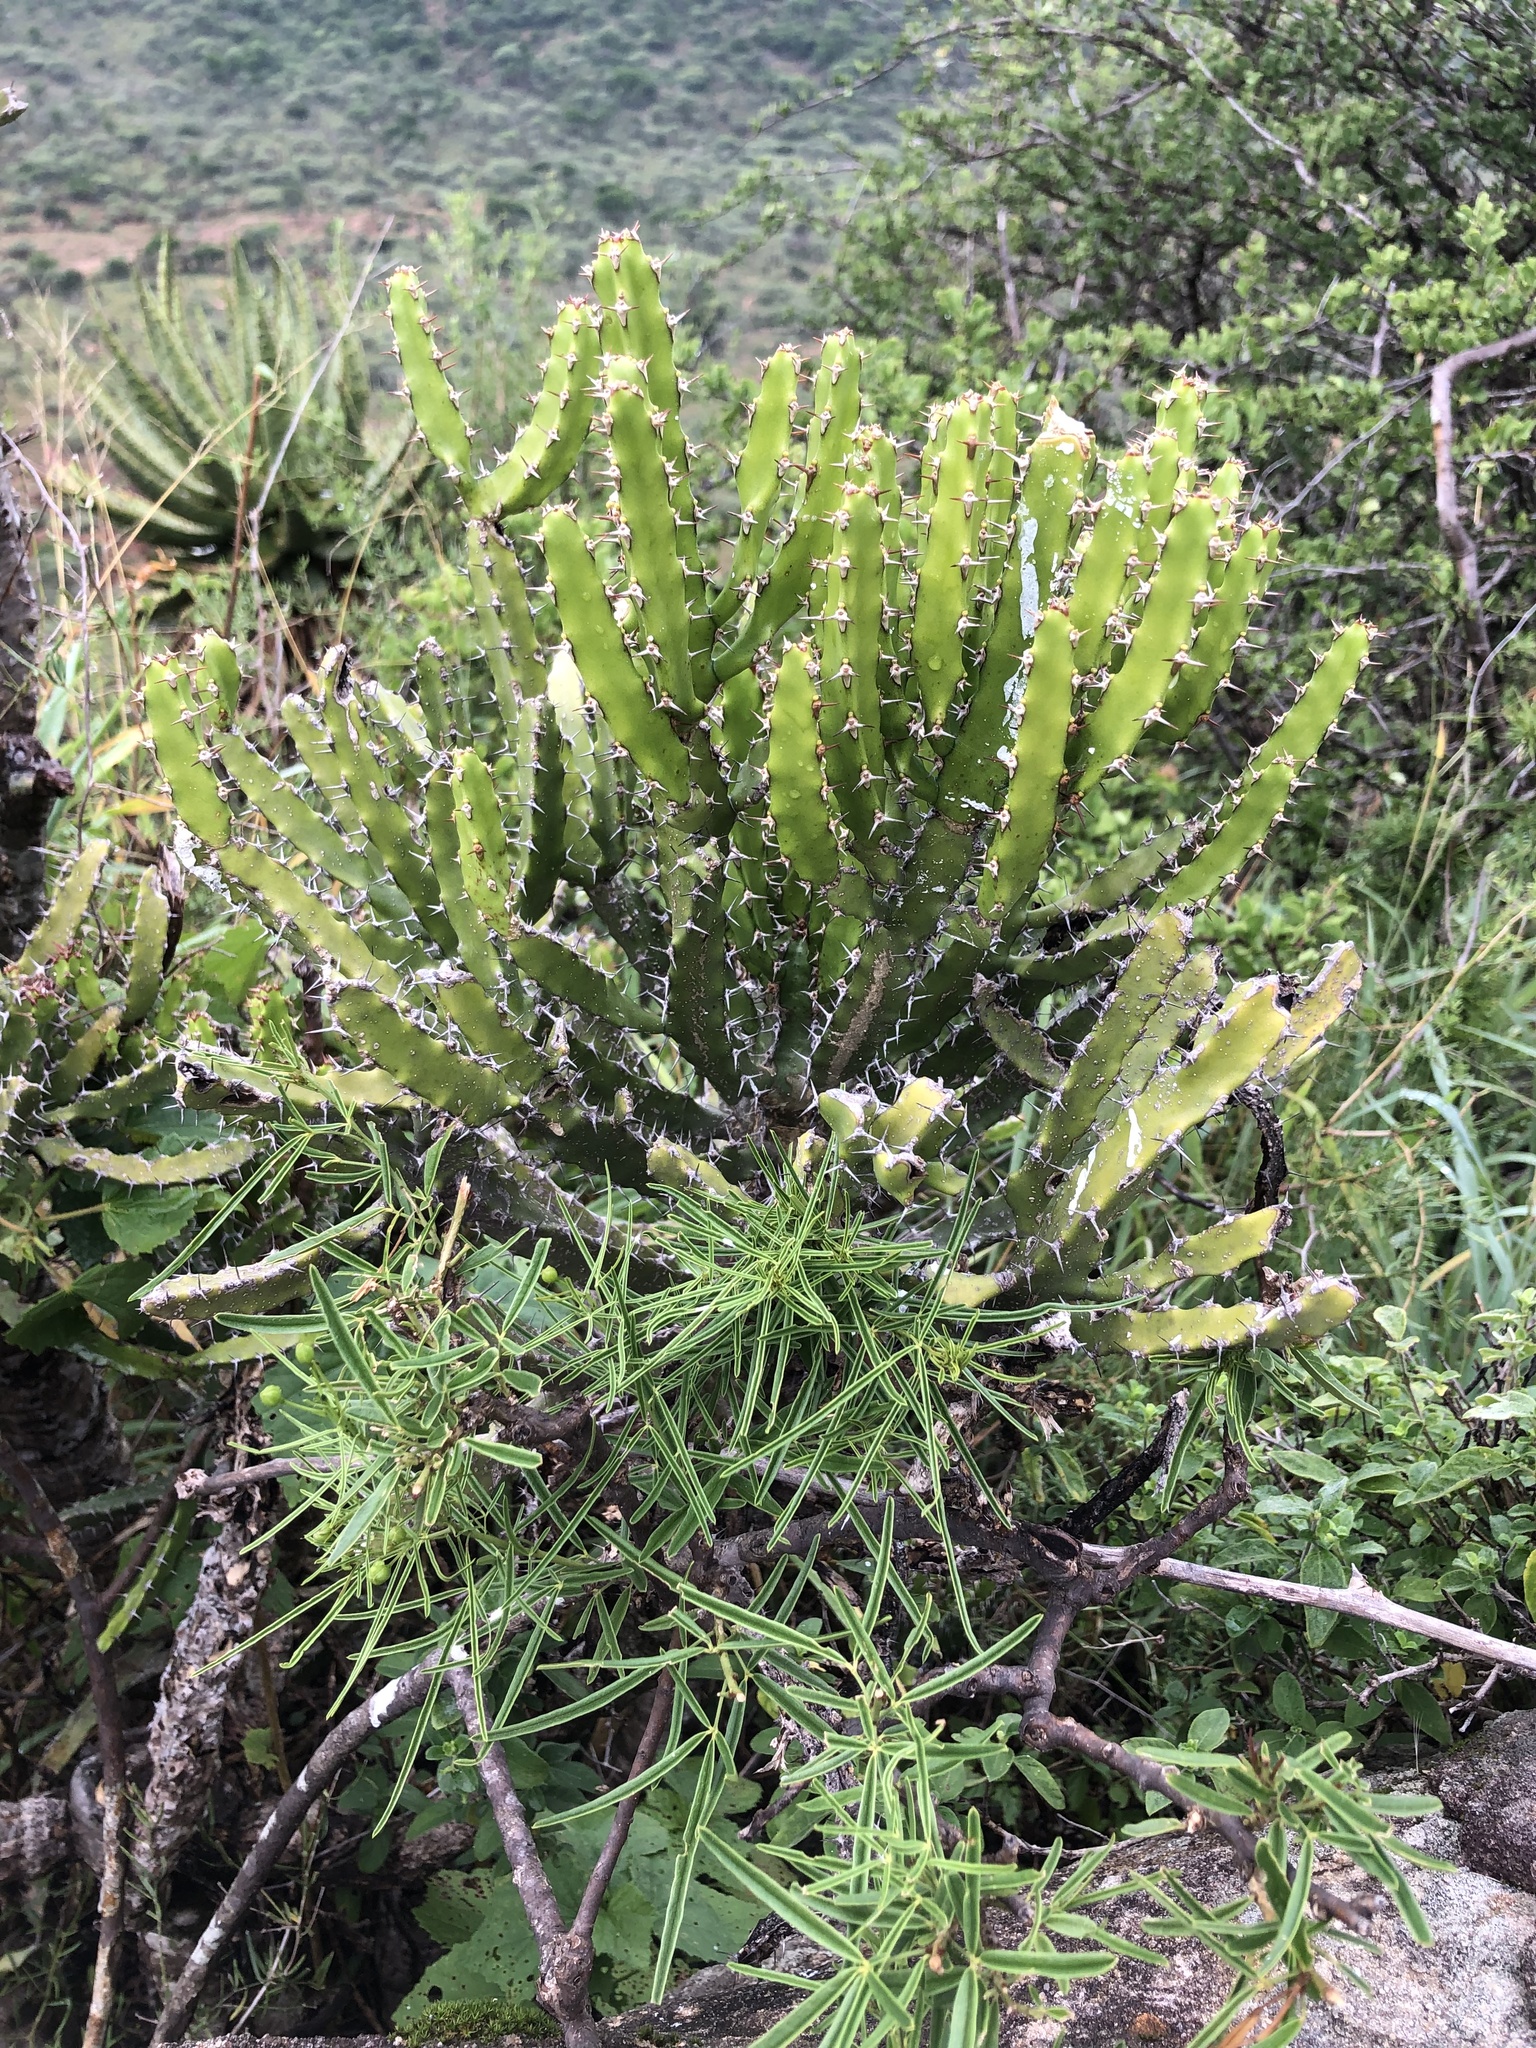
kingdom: Plantae
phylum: Tracheophyta
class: Magnoliopsida
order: Malpighiales
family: Euphorbiaceae
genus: Euphorbia
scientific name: Euphorbia grandidens
